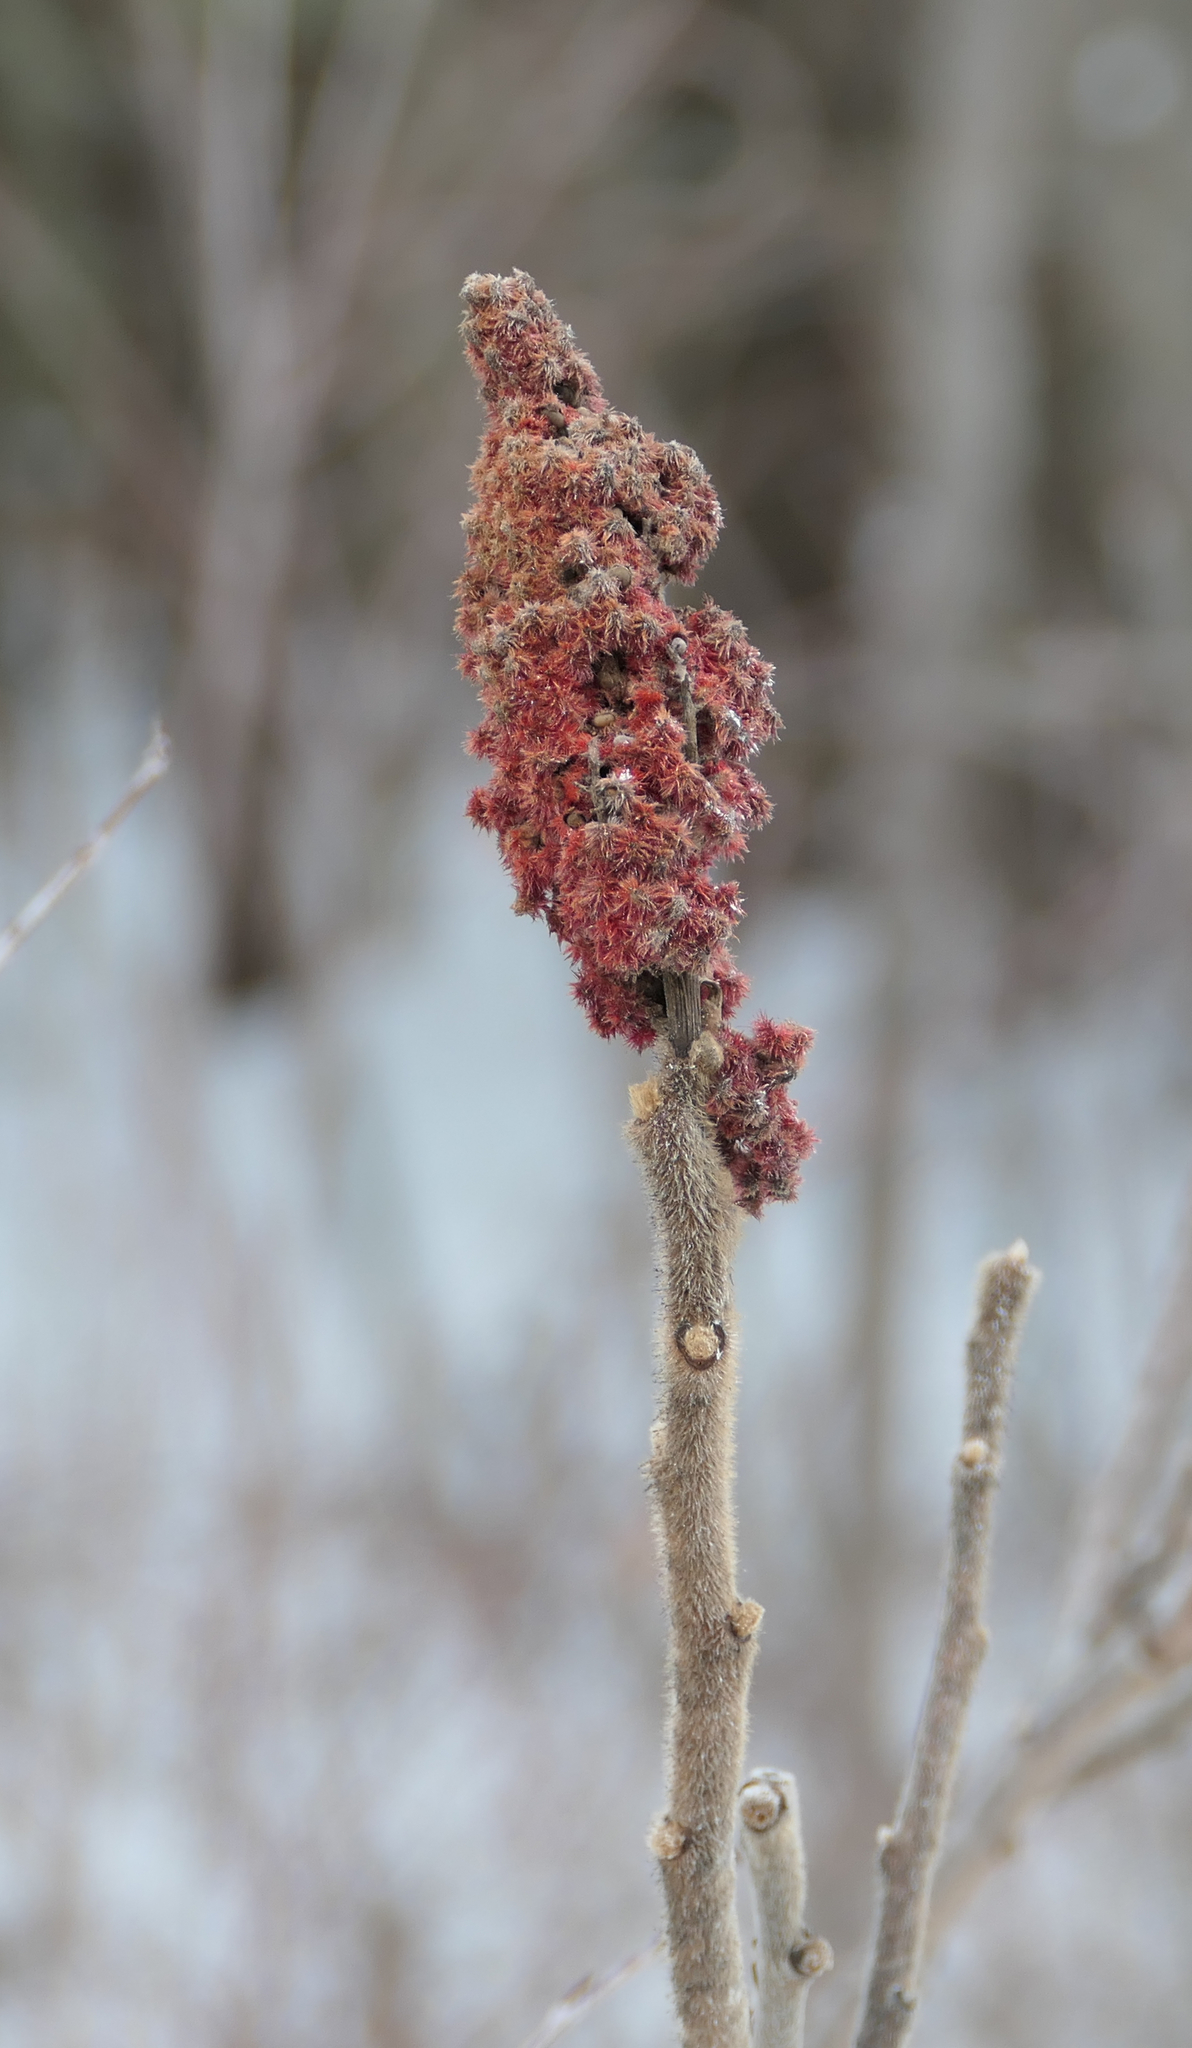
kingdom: Plantae
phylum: Tracheophyta
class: Magnoliopsida
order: Sapindales
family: Anacardiaceae
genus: Rhus
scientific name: Rhus typhina
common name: Staghorn sumac
